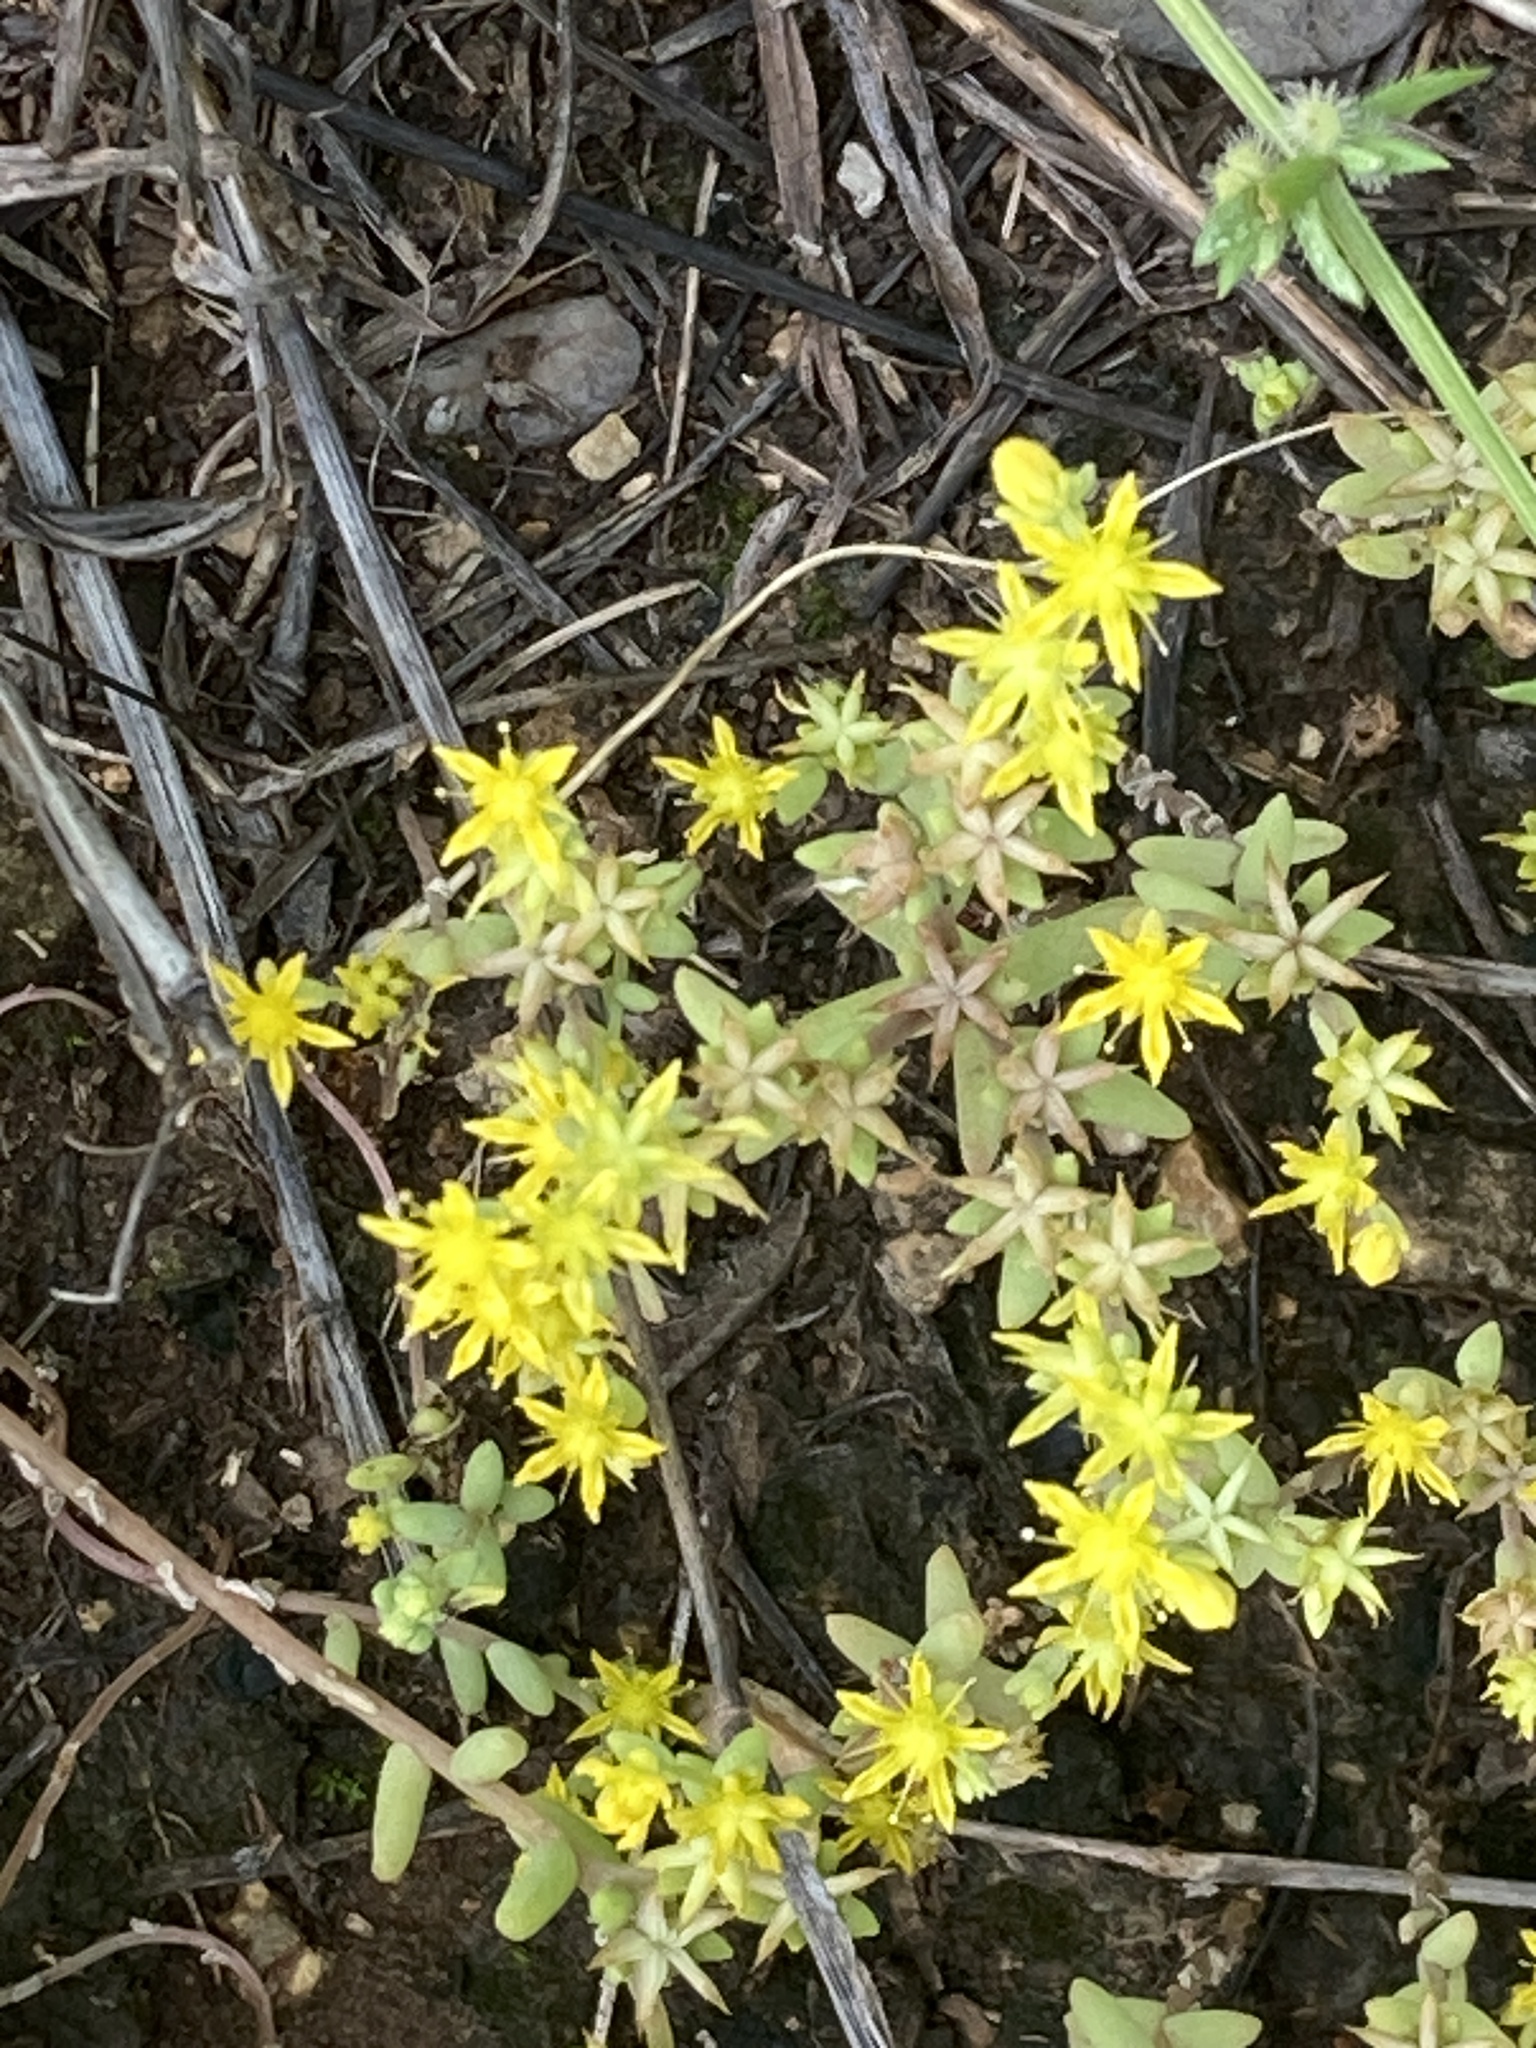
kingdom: Plantae
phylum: Tracheophyta
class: Magnoliopsida
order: Saxifragales
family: Crassulaceae
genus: Sedum
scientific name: Sedum nuttallii
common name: Yellow stonecrop
